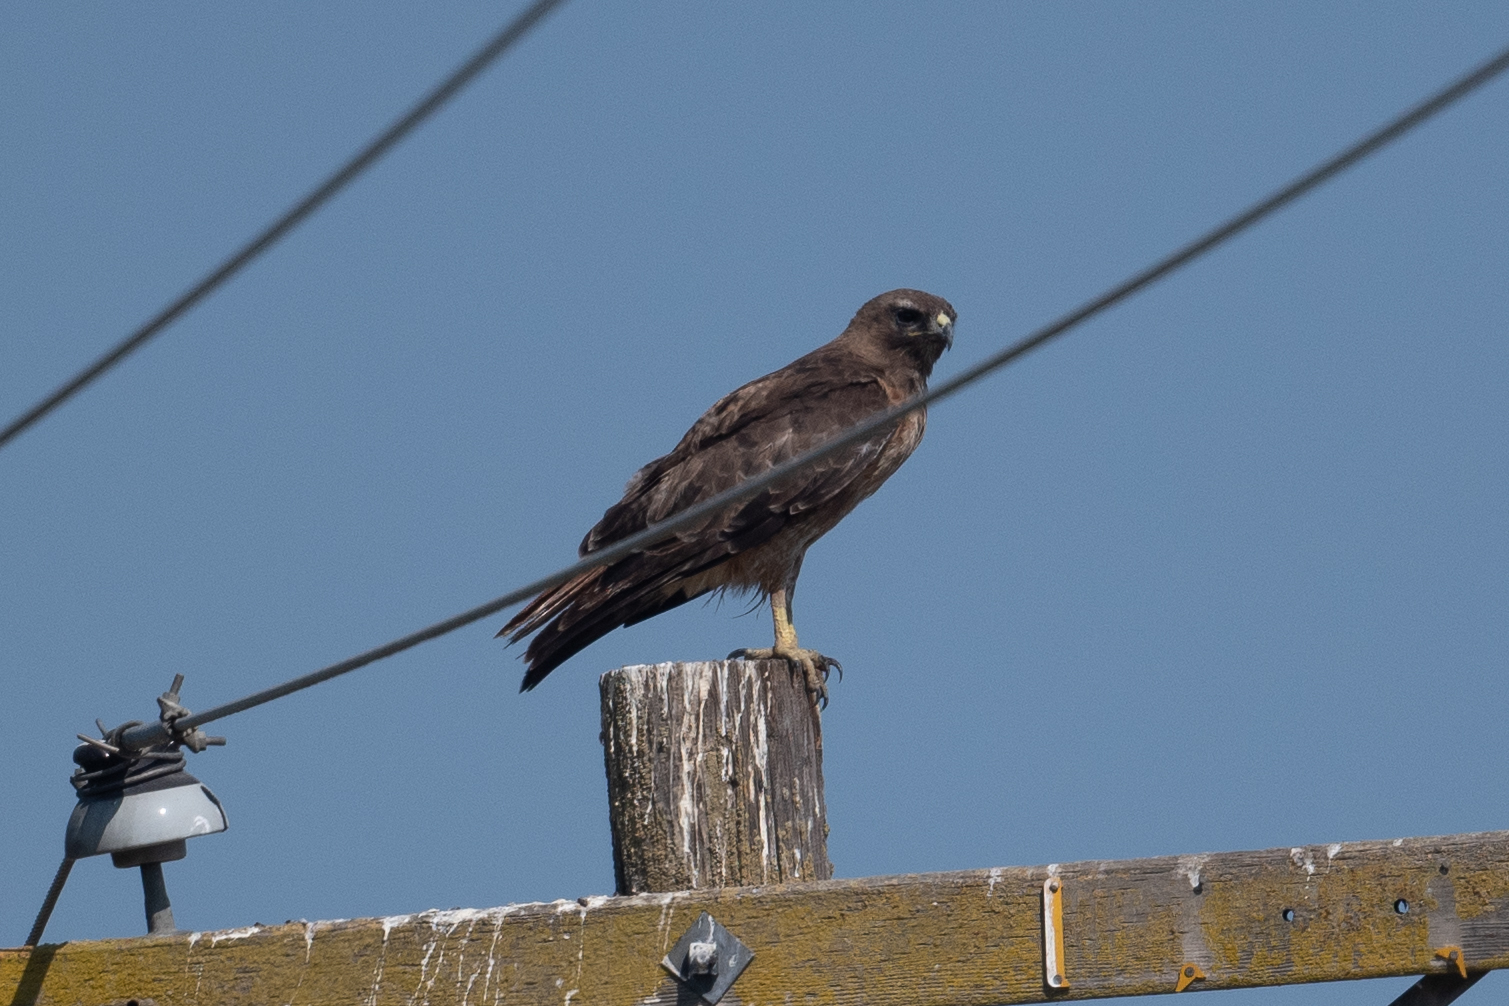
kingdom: Animalia
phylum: Chordata
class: Aves
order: Accipitriformes
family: Accipitridae
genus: Buteo
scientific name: Buteo swainsoni
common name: Swainson's hawk
